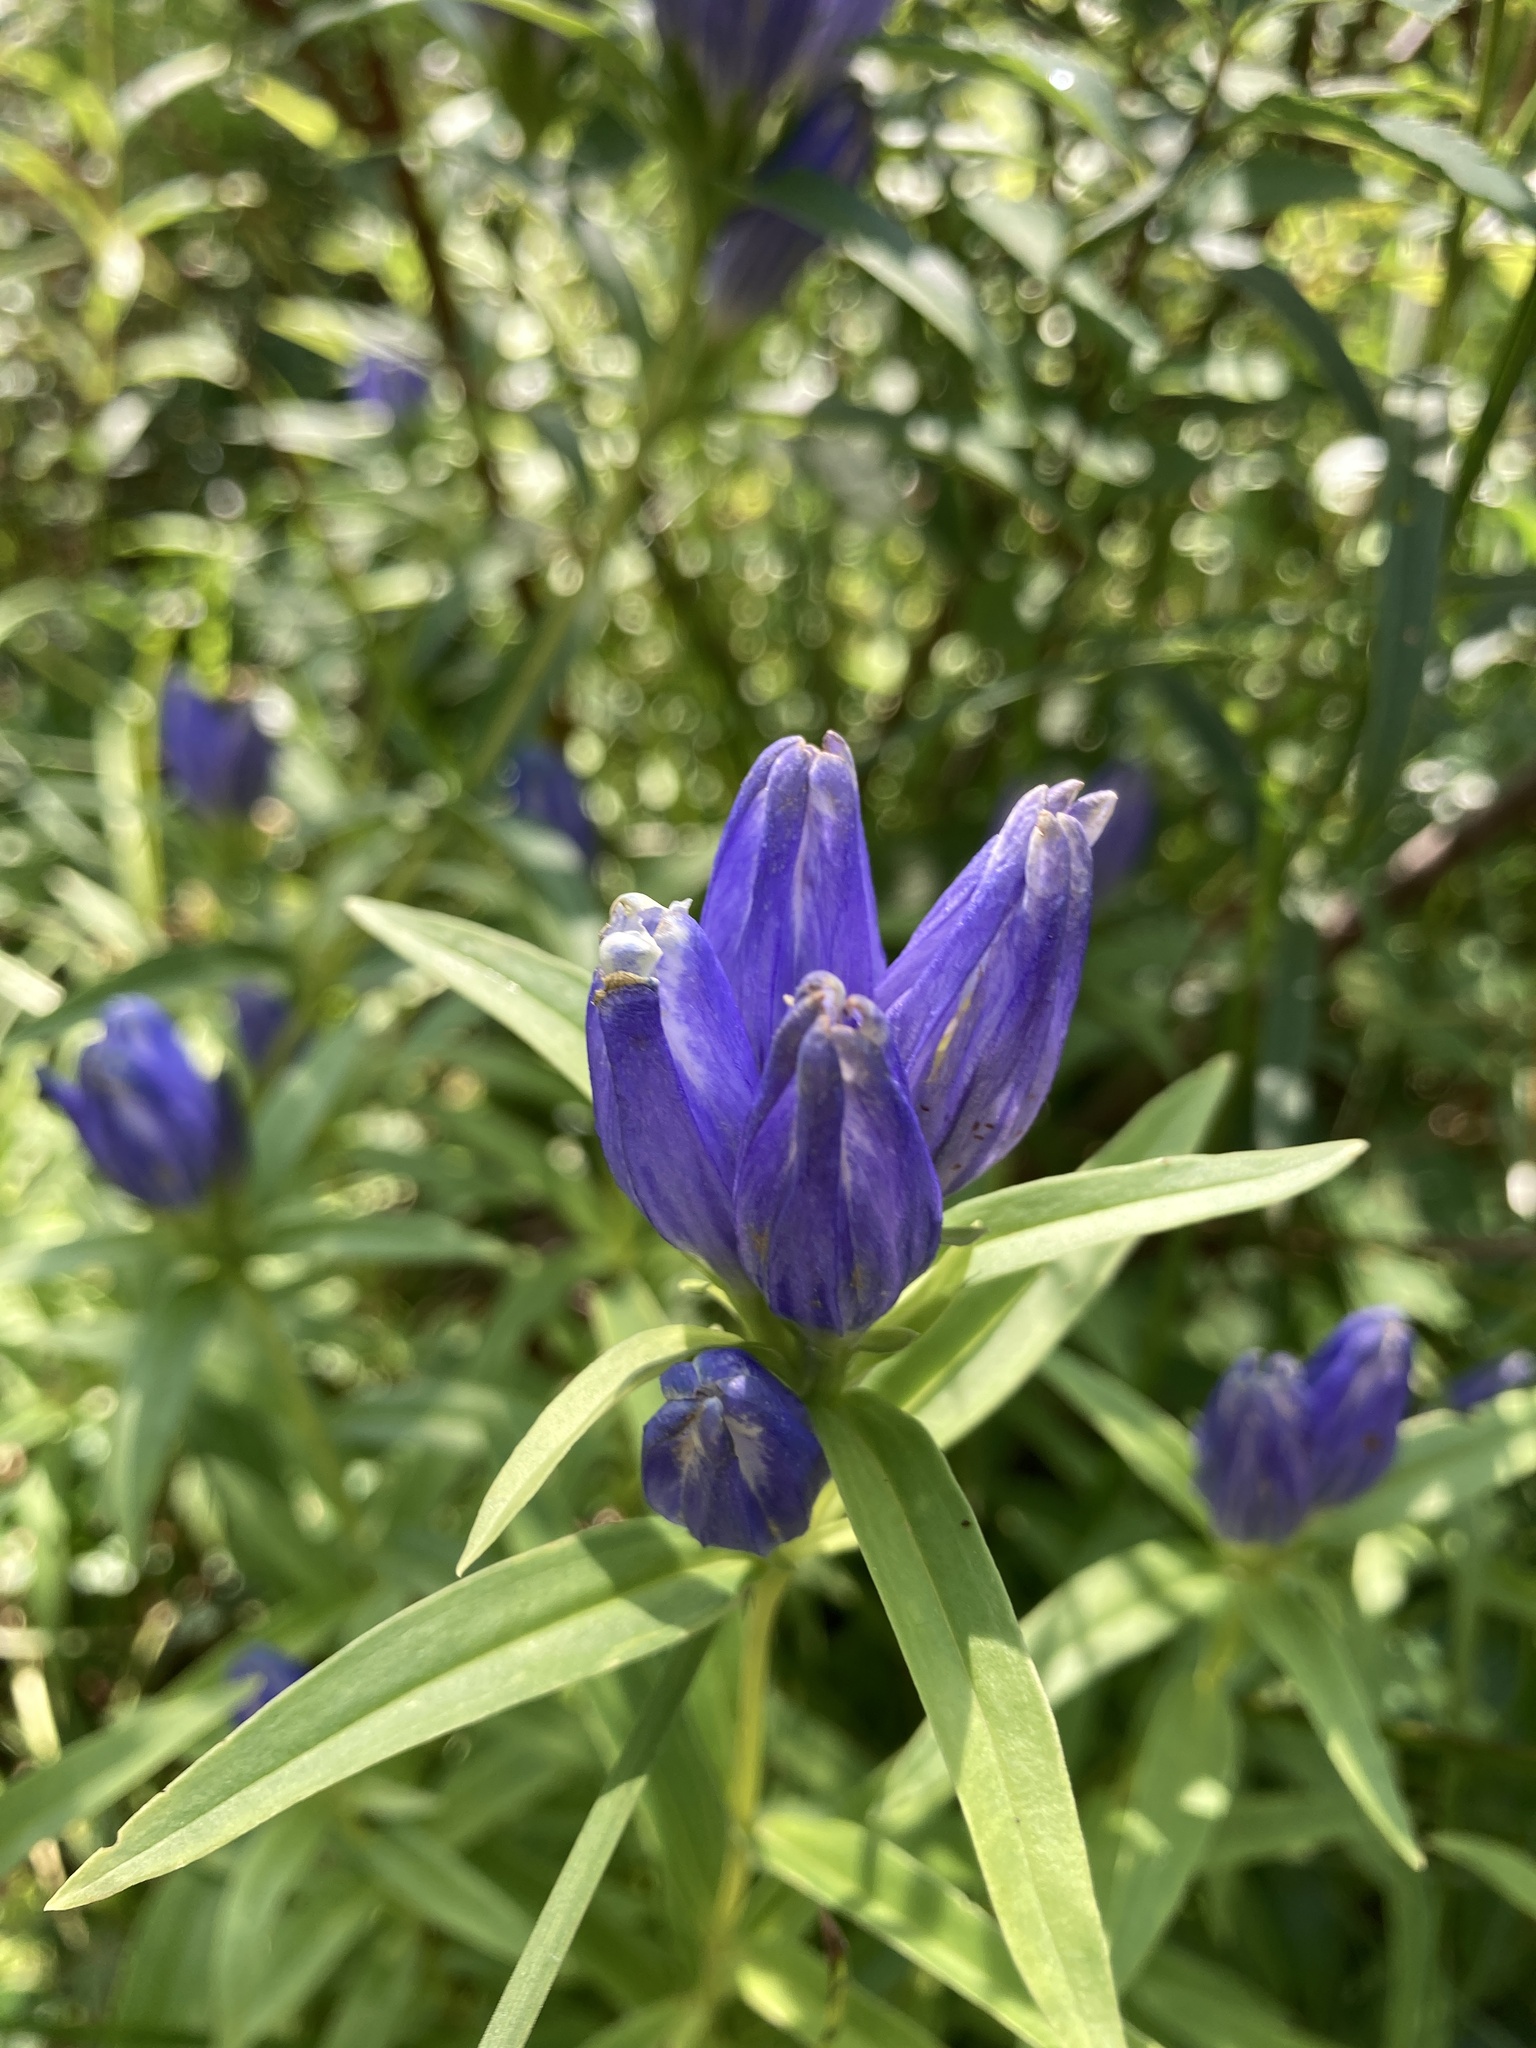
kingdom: Plantae
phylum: Tracheophyta
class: Magnoliopsida
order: Gentianales
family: Gentianaceae
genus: Gentiana
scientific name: Gentiana linearis
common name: Bastard gentian
